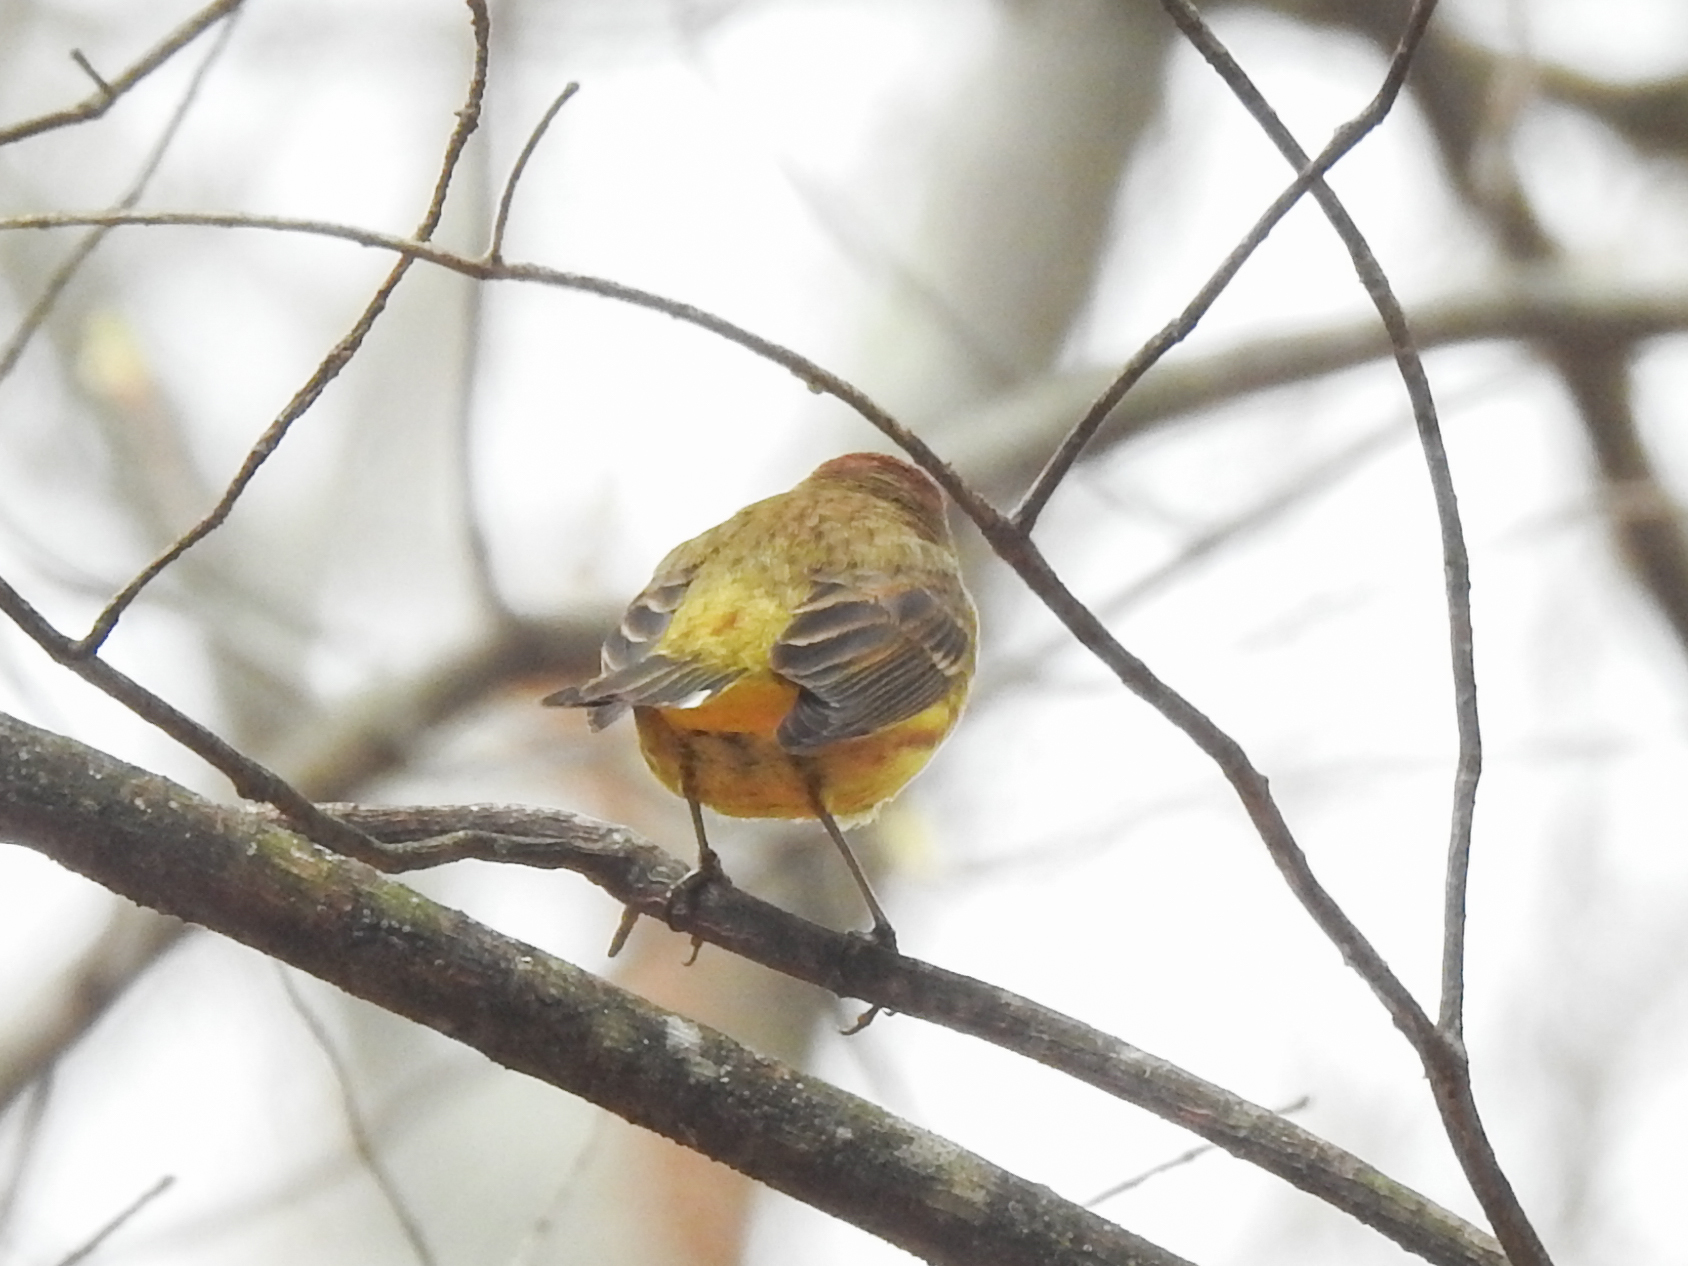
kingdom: Animalia
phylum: Chordata
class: Aves
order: Passeriformes
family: Parulidae
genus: Setophaga
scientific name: Setophaga palmarum
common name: Palm warbler
